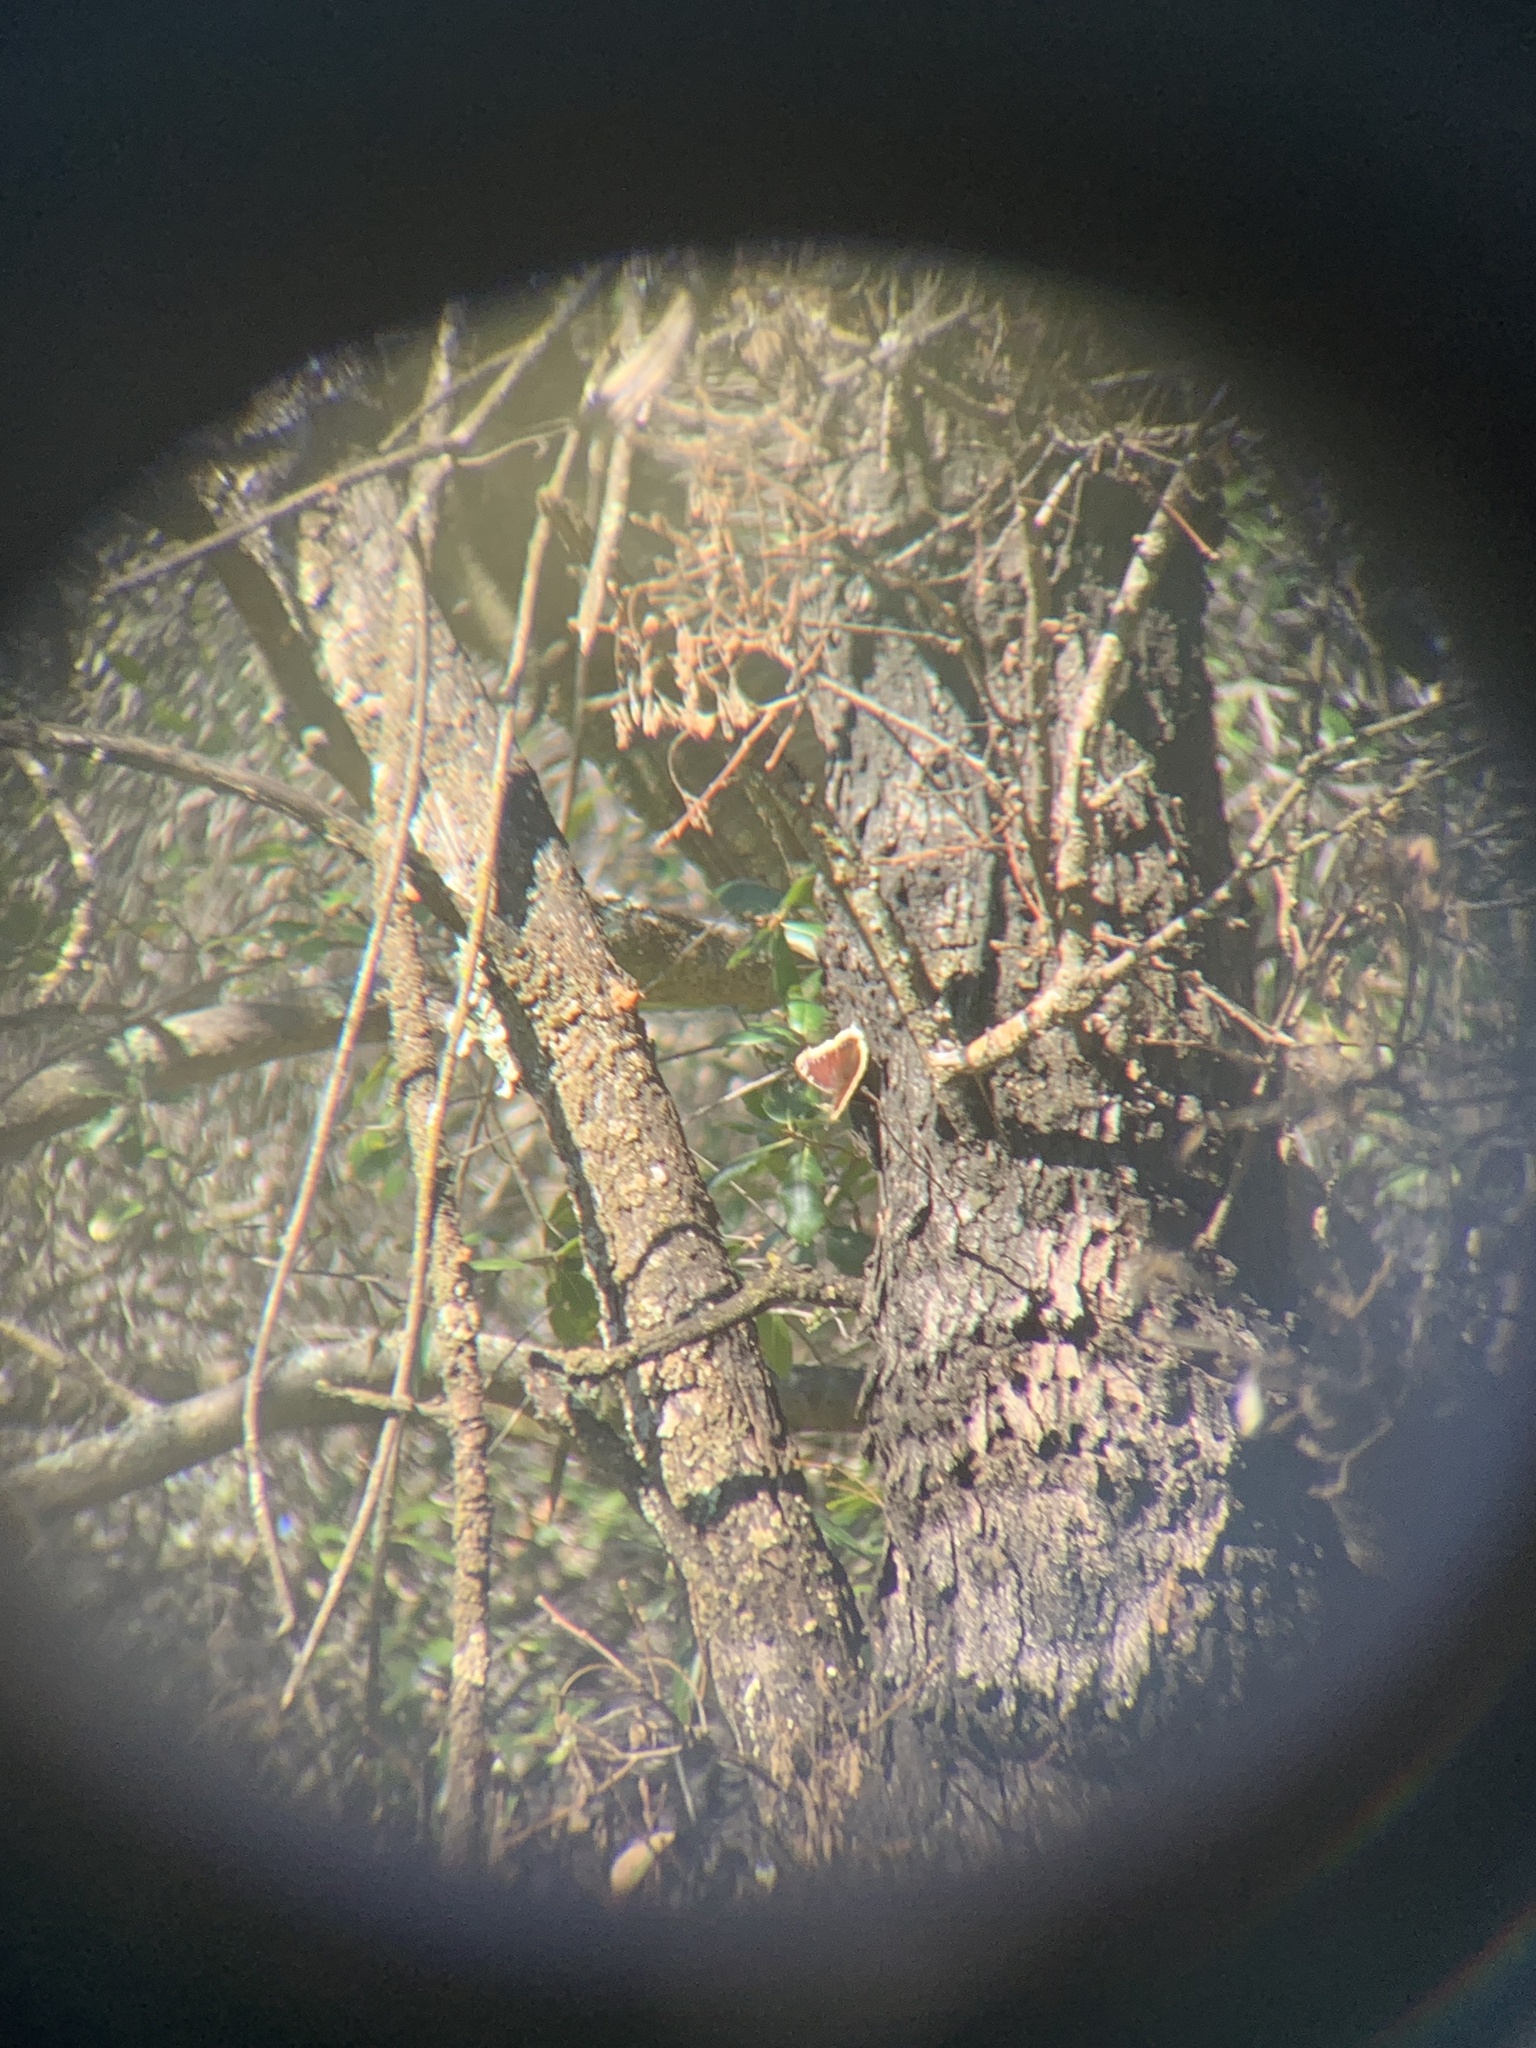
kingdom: Animalia
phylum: Arthropoda
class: Insecta
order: Lepidoptera
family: Nymphalidae
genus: Nymphalis
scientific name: Nymphalis antiopa
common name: Camberwell beauty
